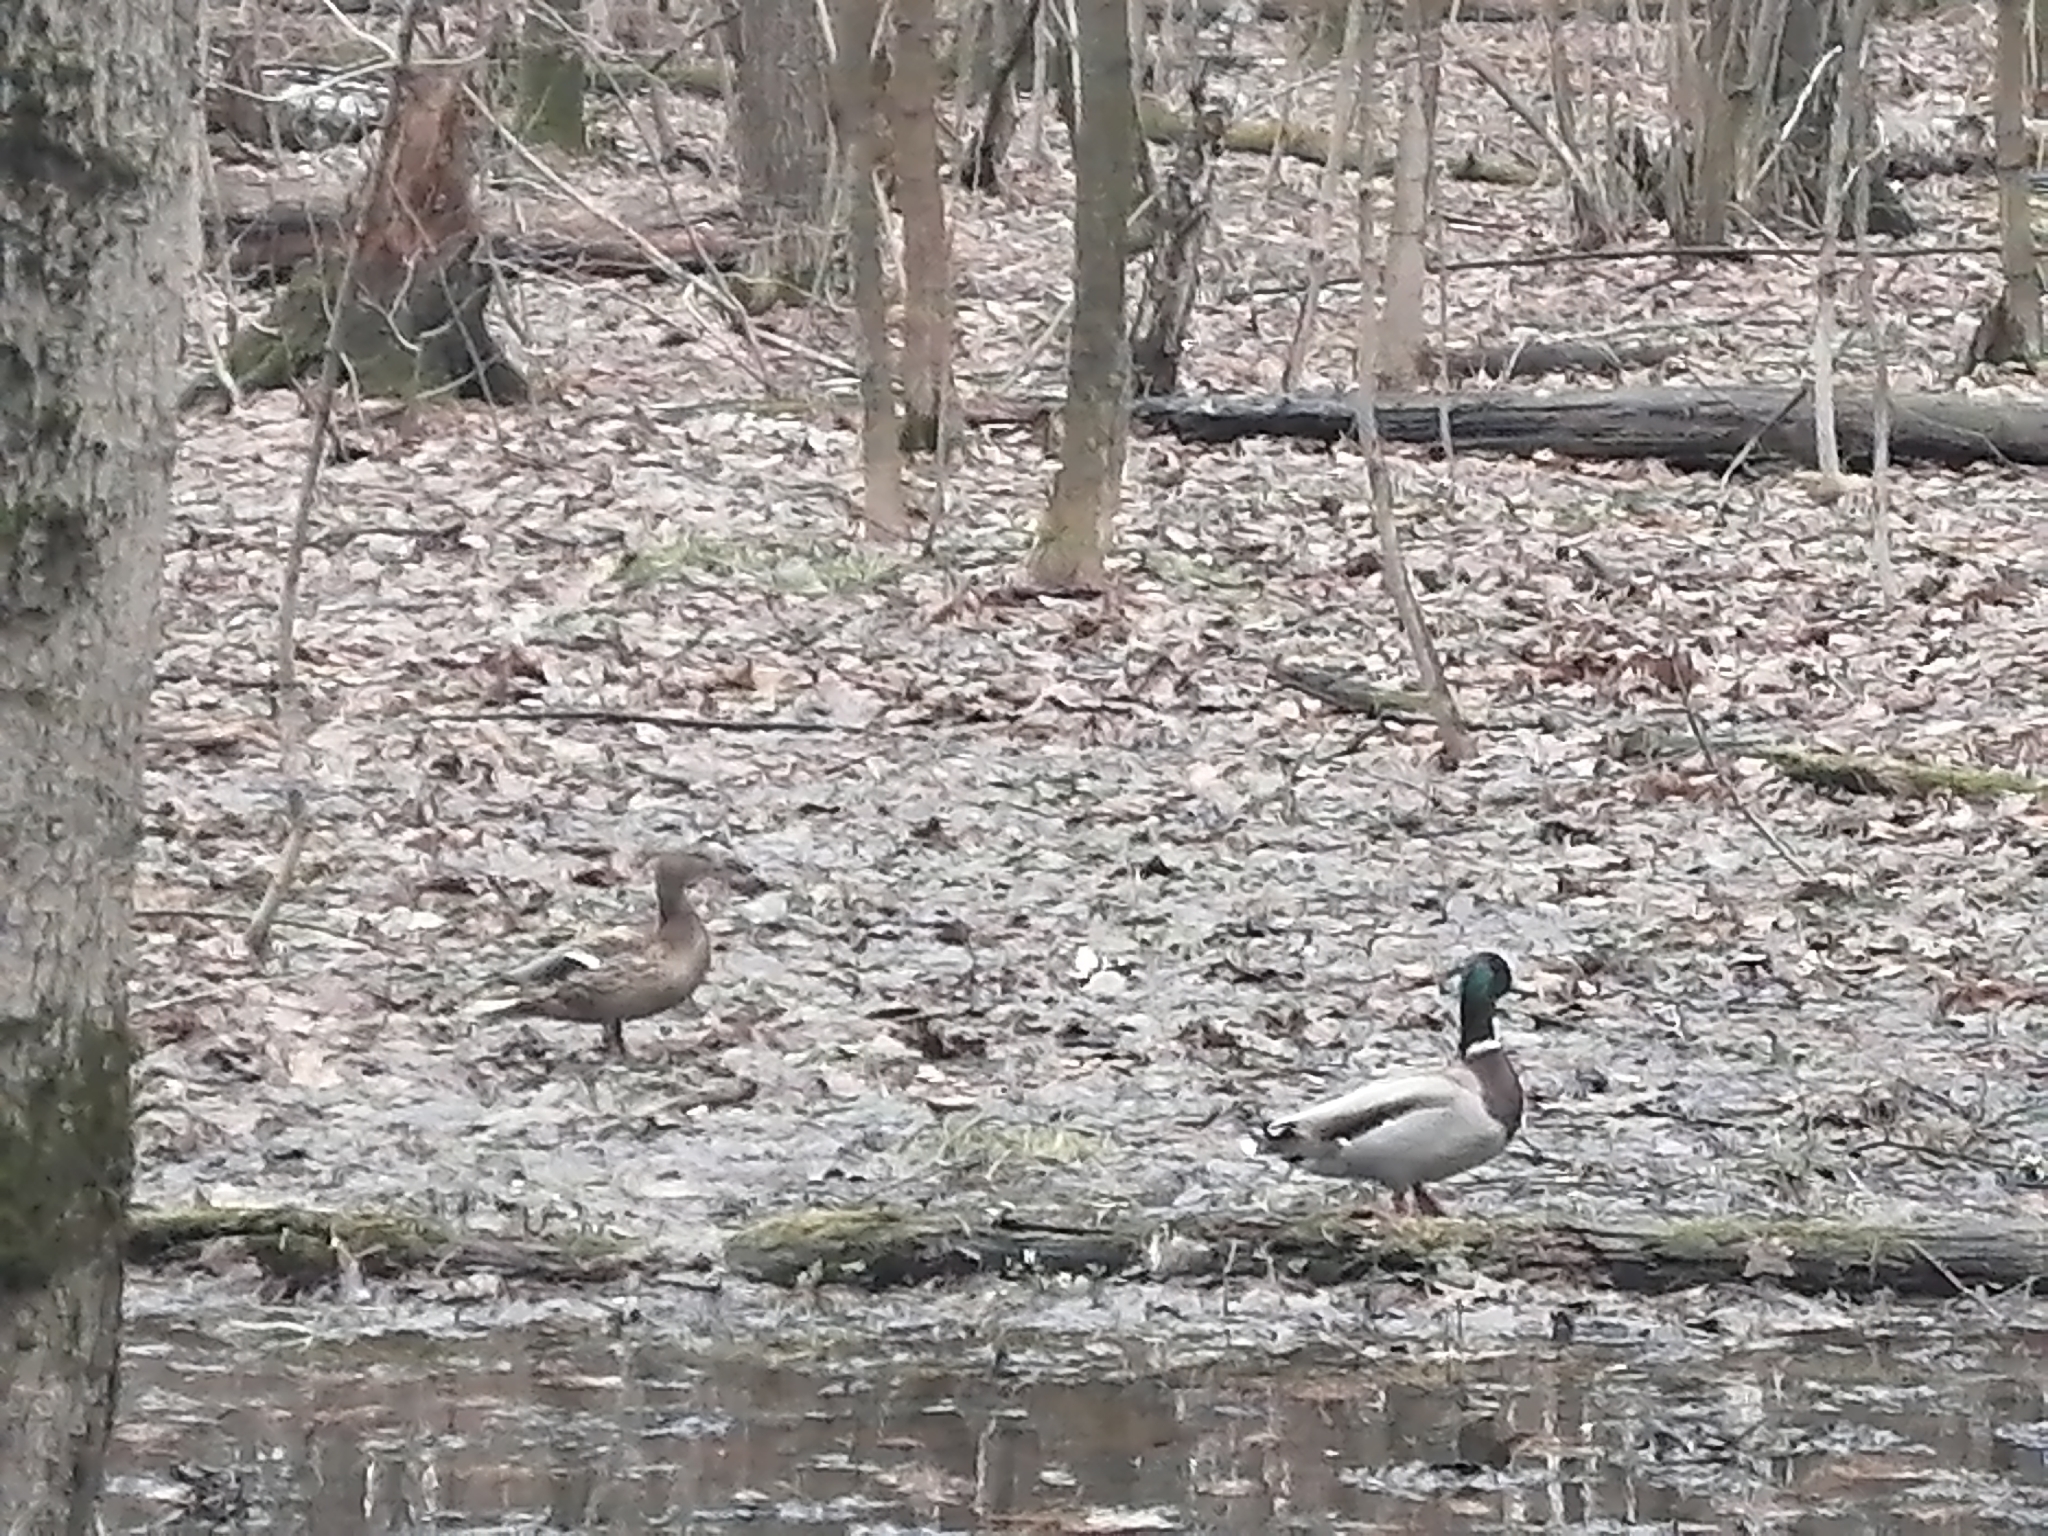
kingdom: Animalia
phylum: Chordata
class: Aves
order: Anseriformes
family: Anatidae
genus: Anas
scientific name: Anas platyrhynchos
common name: Mallard
